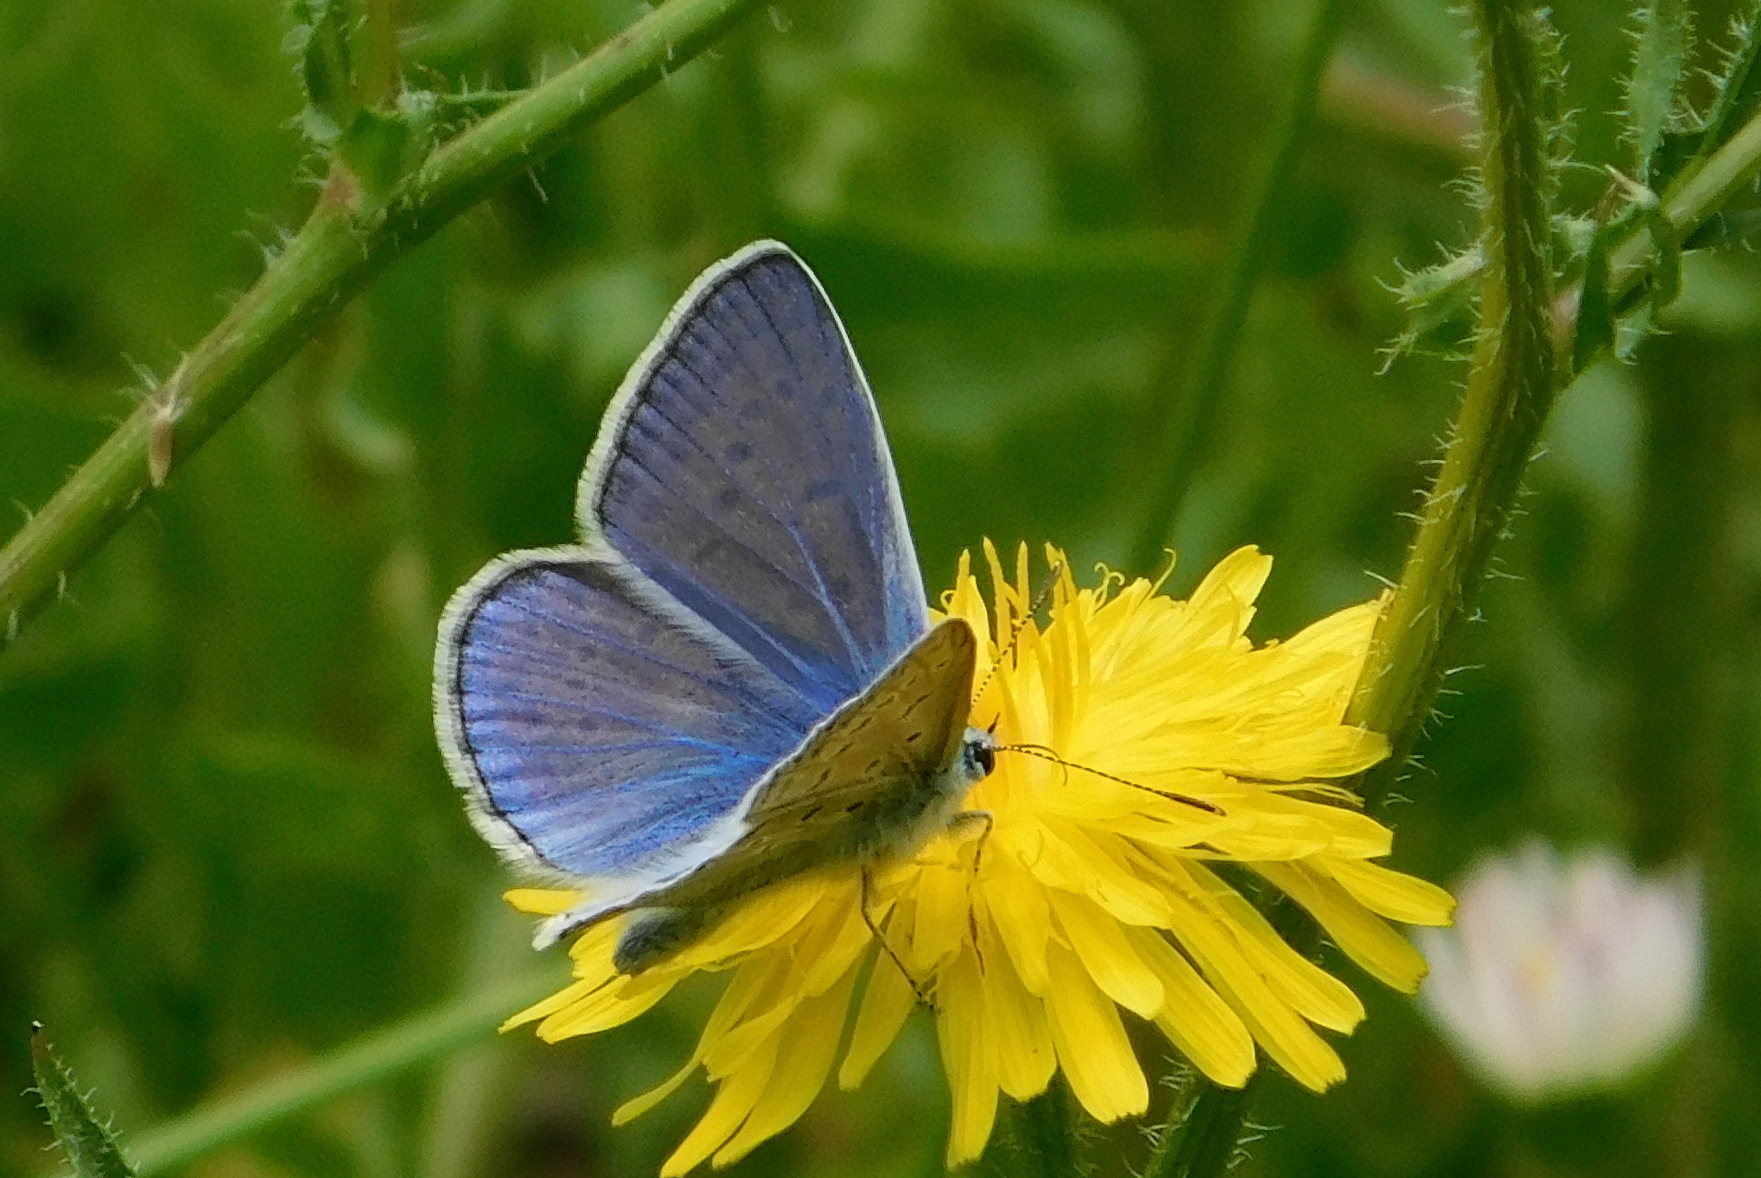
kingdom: Animalia
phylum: Arthropoda
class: Insecta
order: Lepidoptera
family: Lycaenidae
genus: Polyommatus
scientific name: Polyommatus icarus
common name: Common blue
